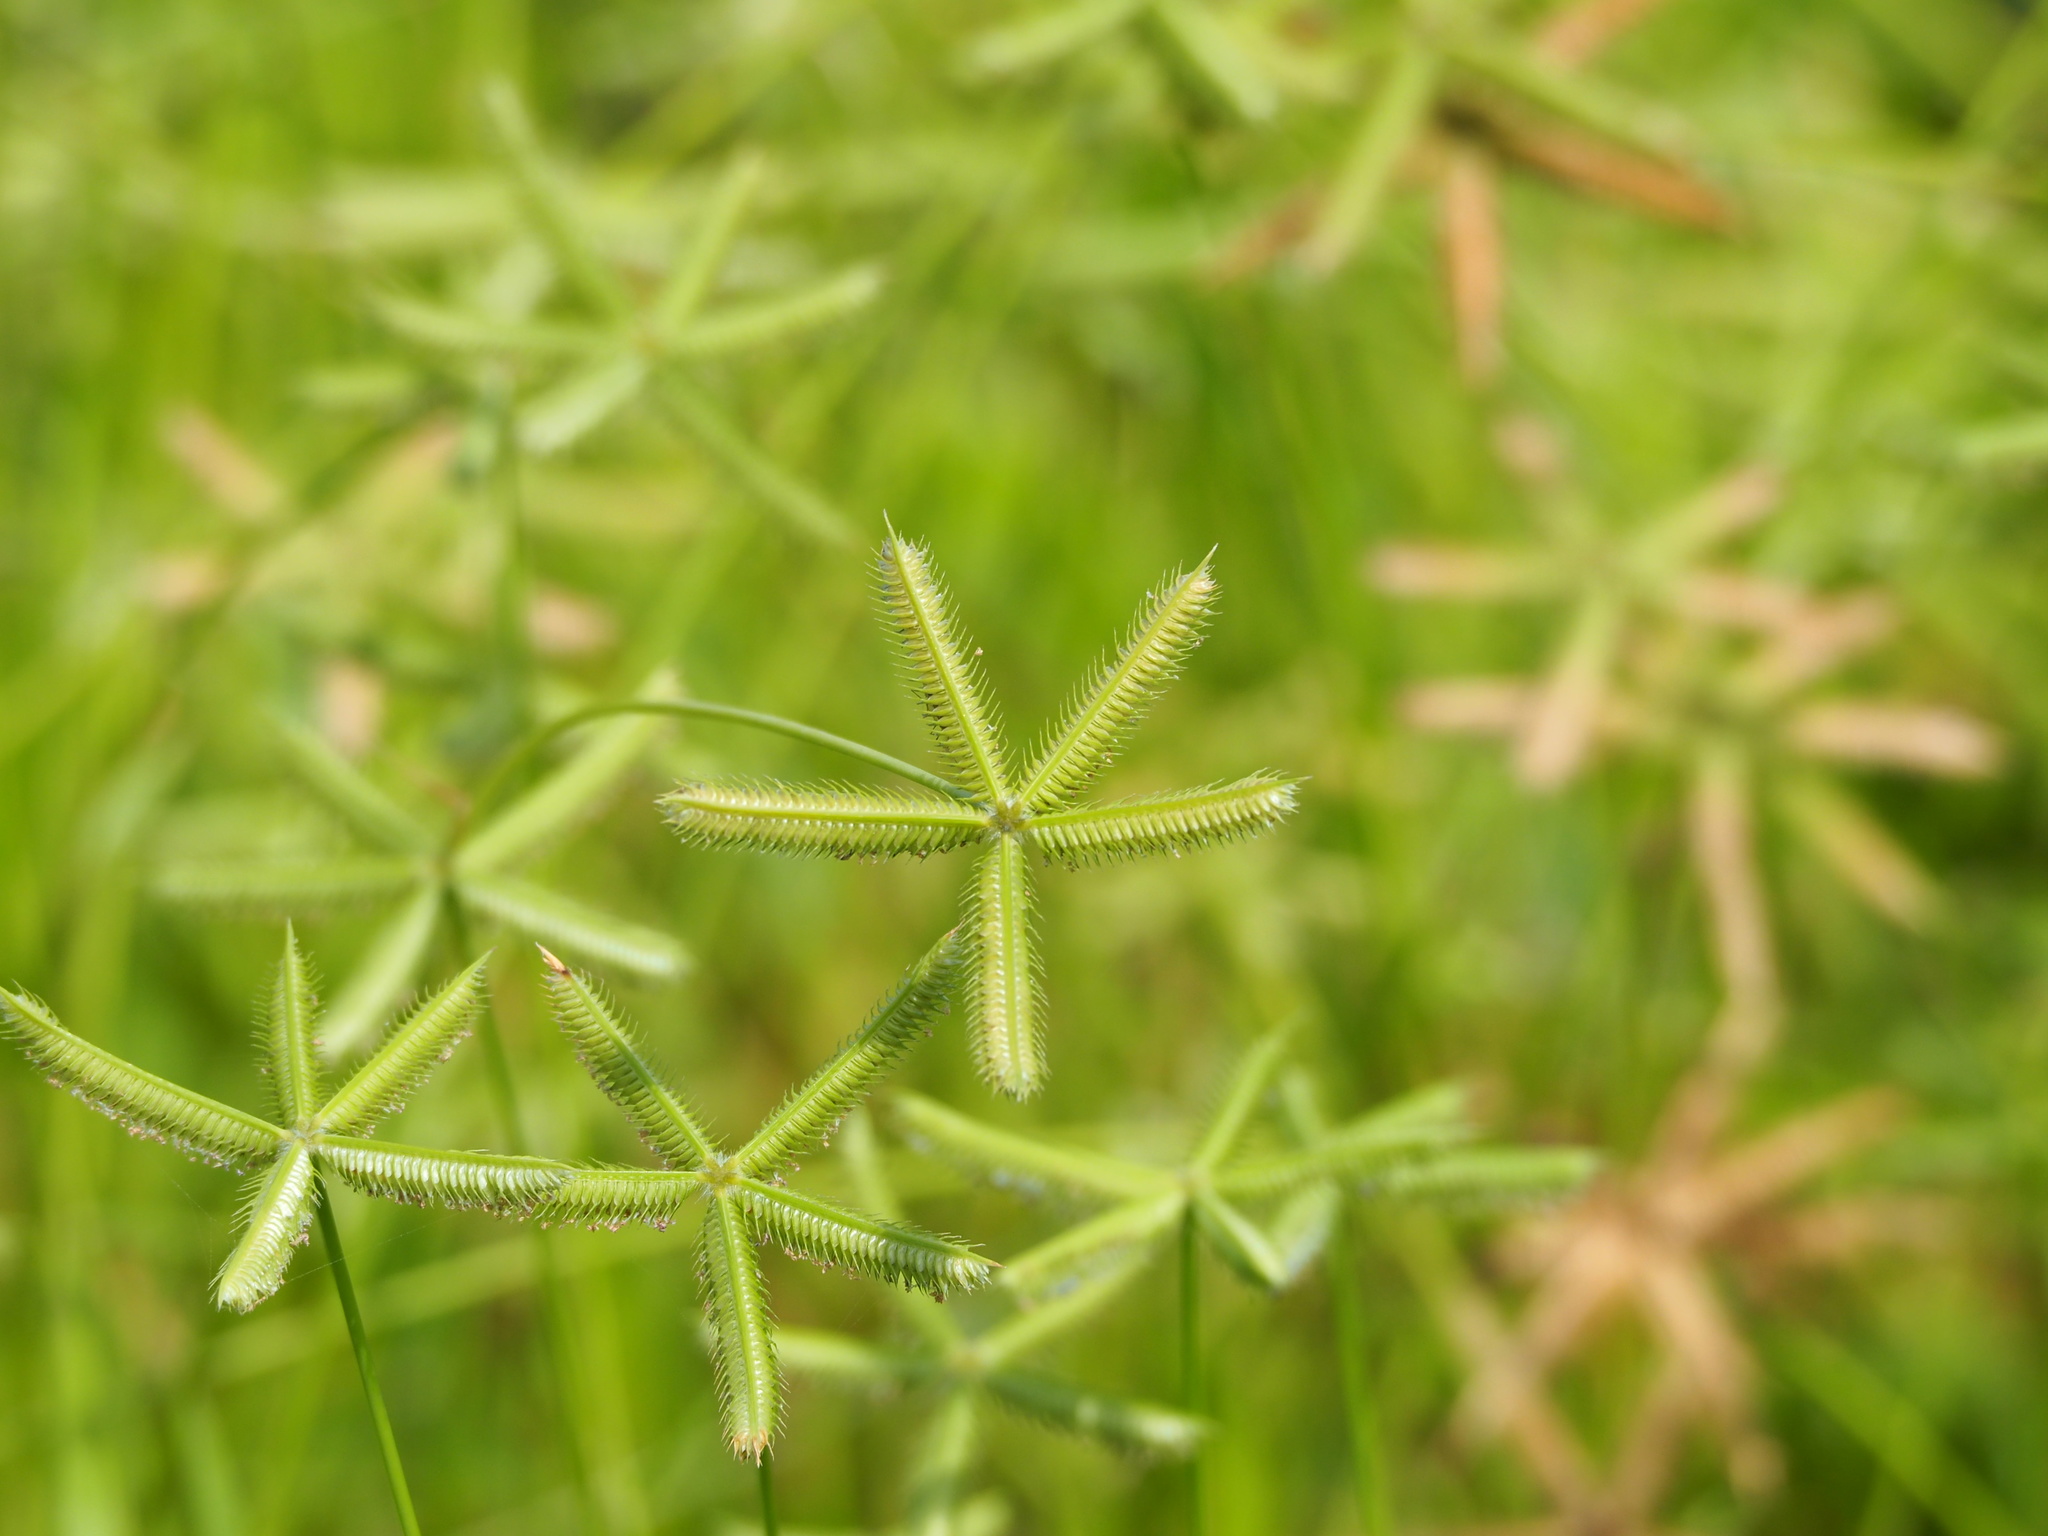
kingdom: Plantae
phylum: Tracheophyta
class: Liliopsida
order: Poales
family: Poaceae
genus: Dactyloctenium
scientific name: Dactyloctenium aegyptium
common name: Egyptian grass
